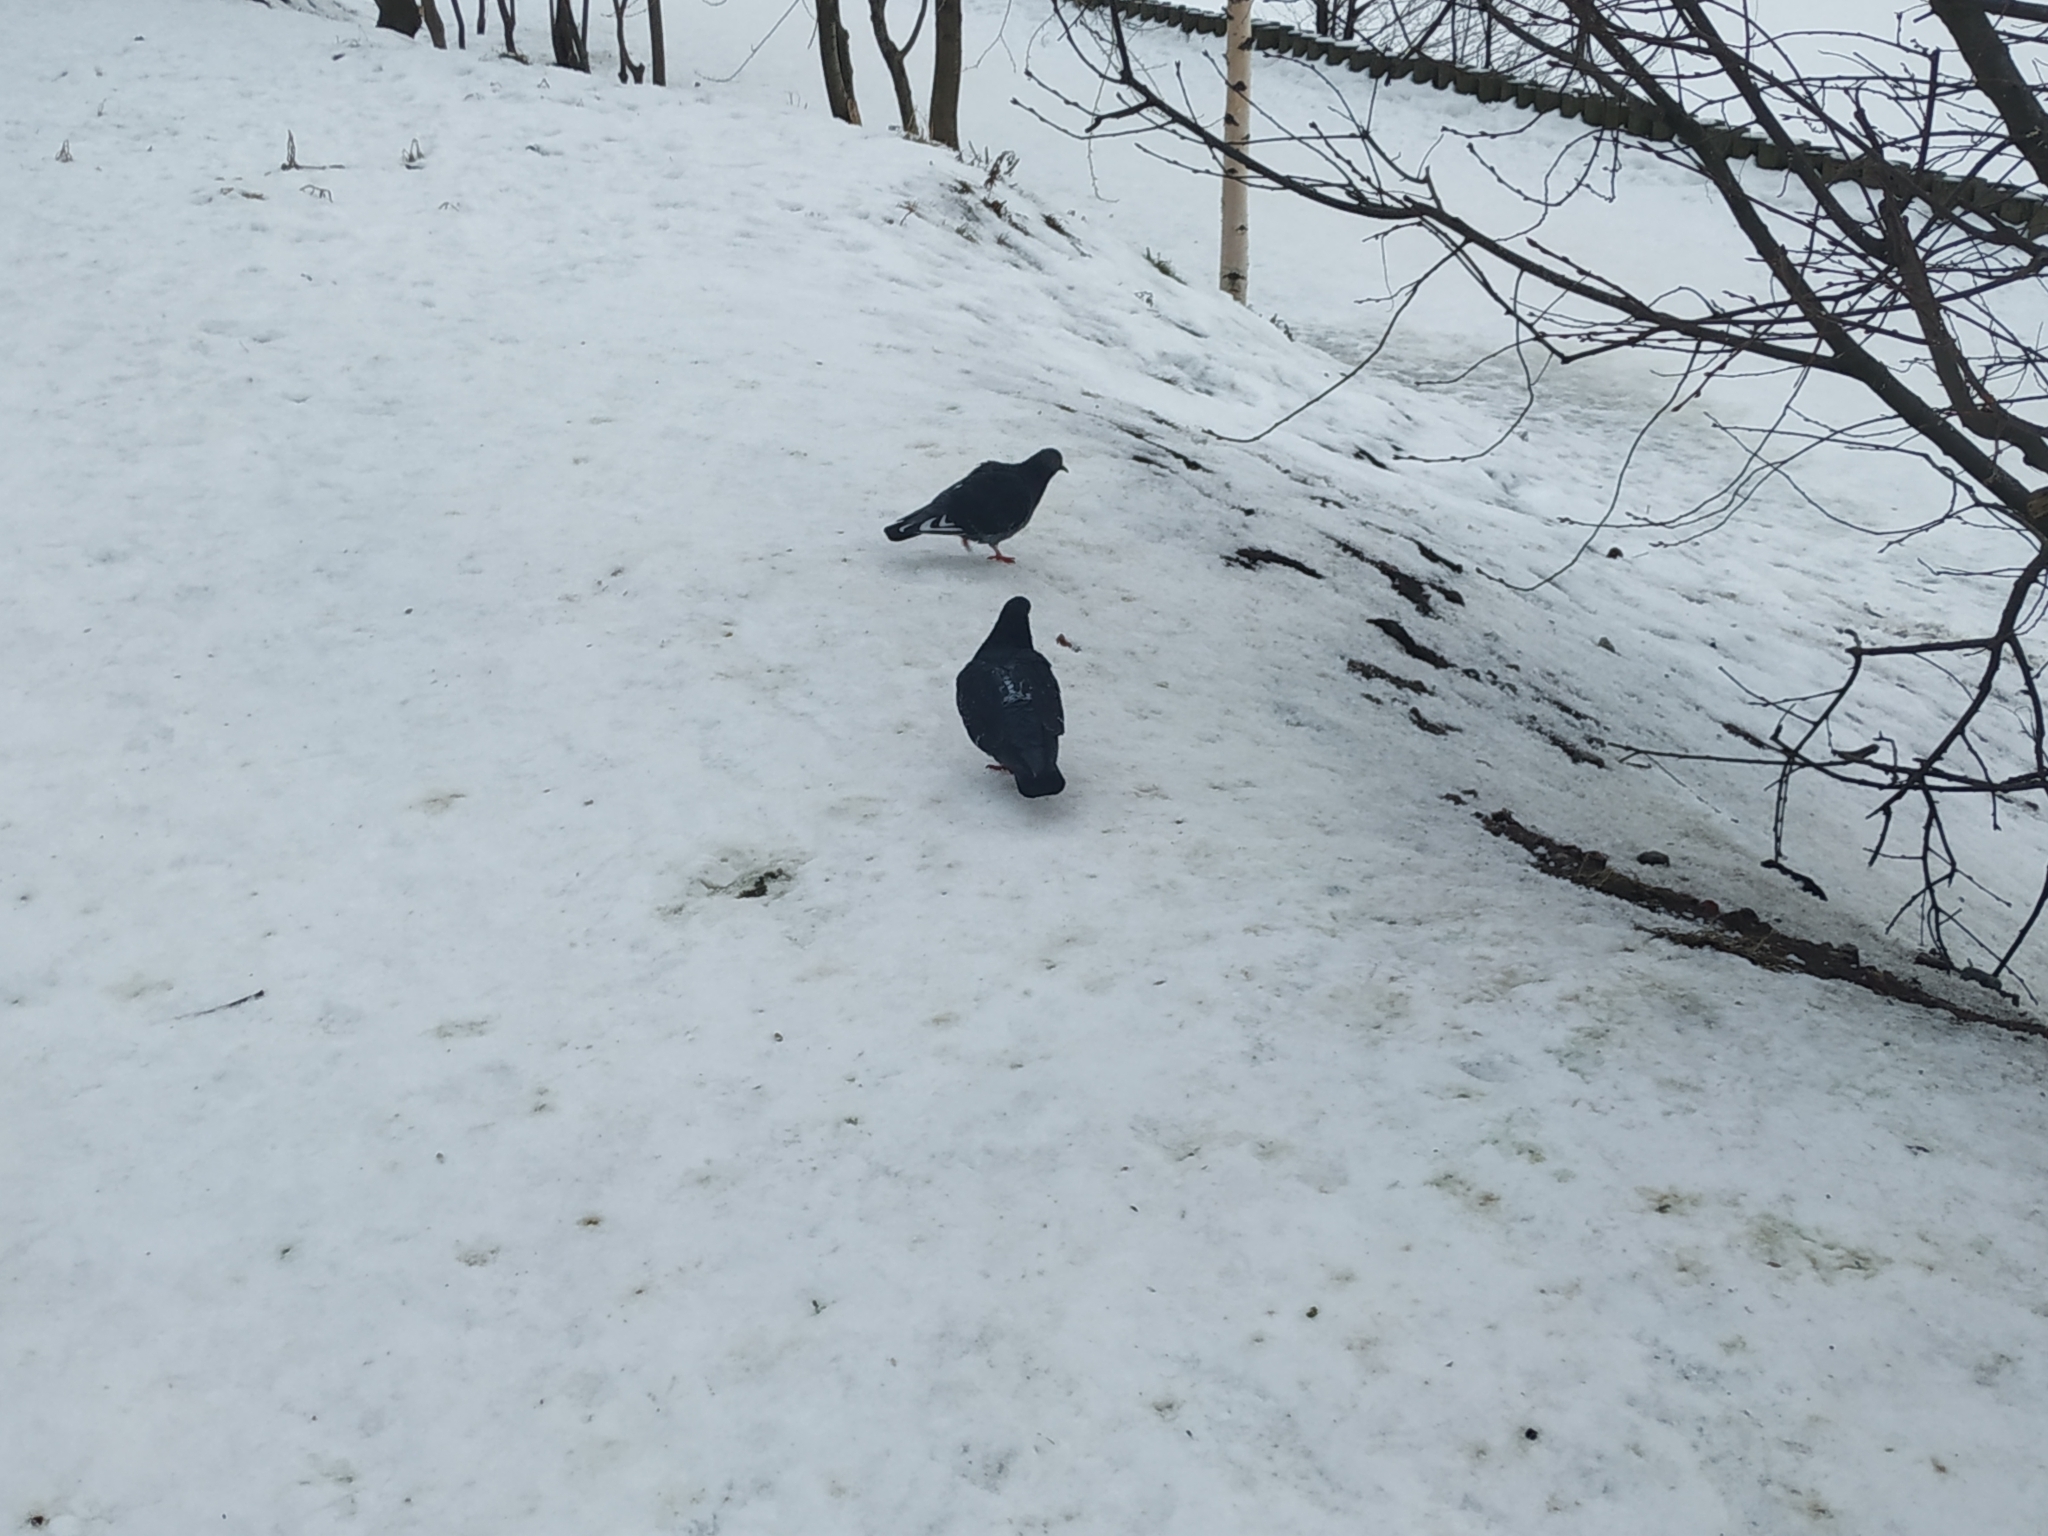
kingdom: Animalia
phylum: Chordata
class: Aves
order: Columbiformes
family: Columbidae
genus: Columba
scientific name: Columba livia
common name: Rock pigeon
